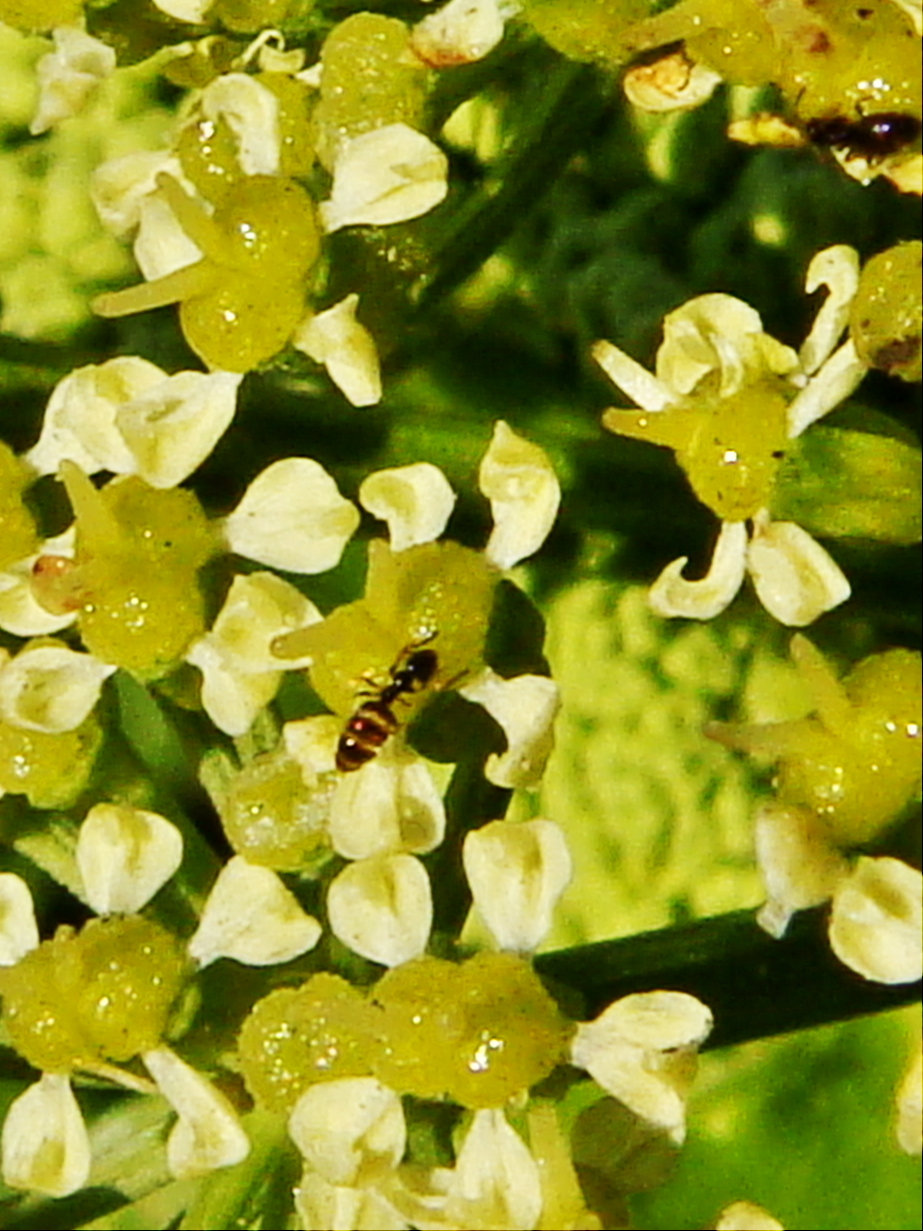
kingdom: Plantae
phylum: Tracheophyta
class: Magnoliopsida
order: Apiales
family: Apiaceae
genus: Smyrnium
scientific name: Smyrnium olusatrum
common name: Alexanders
